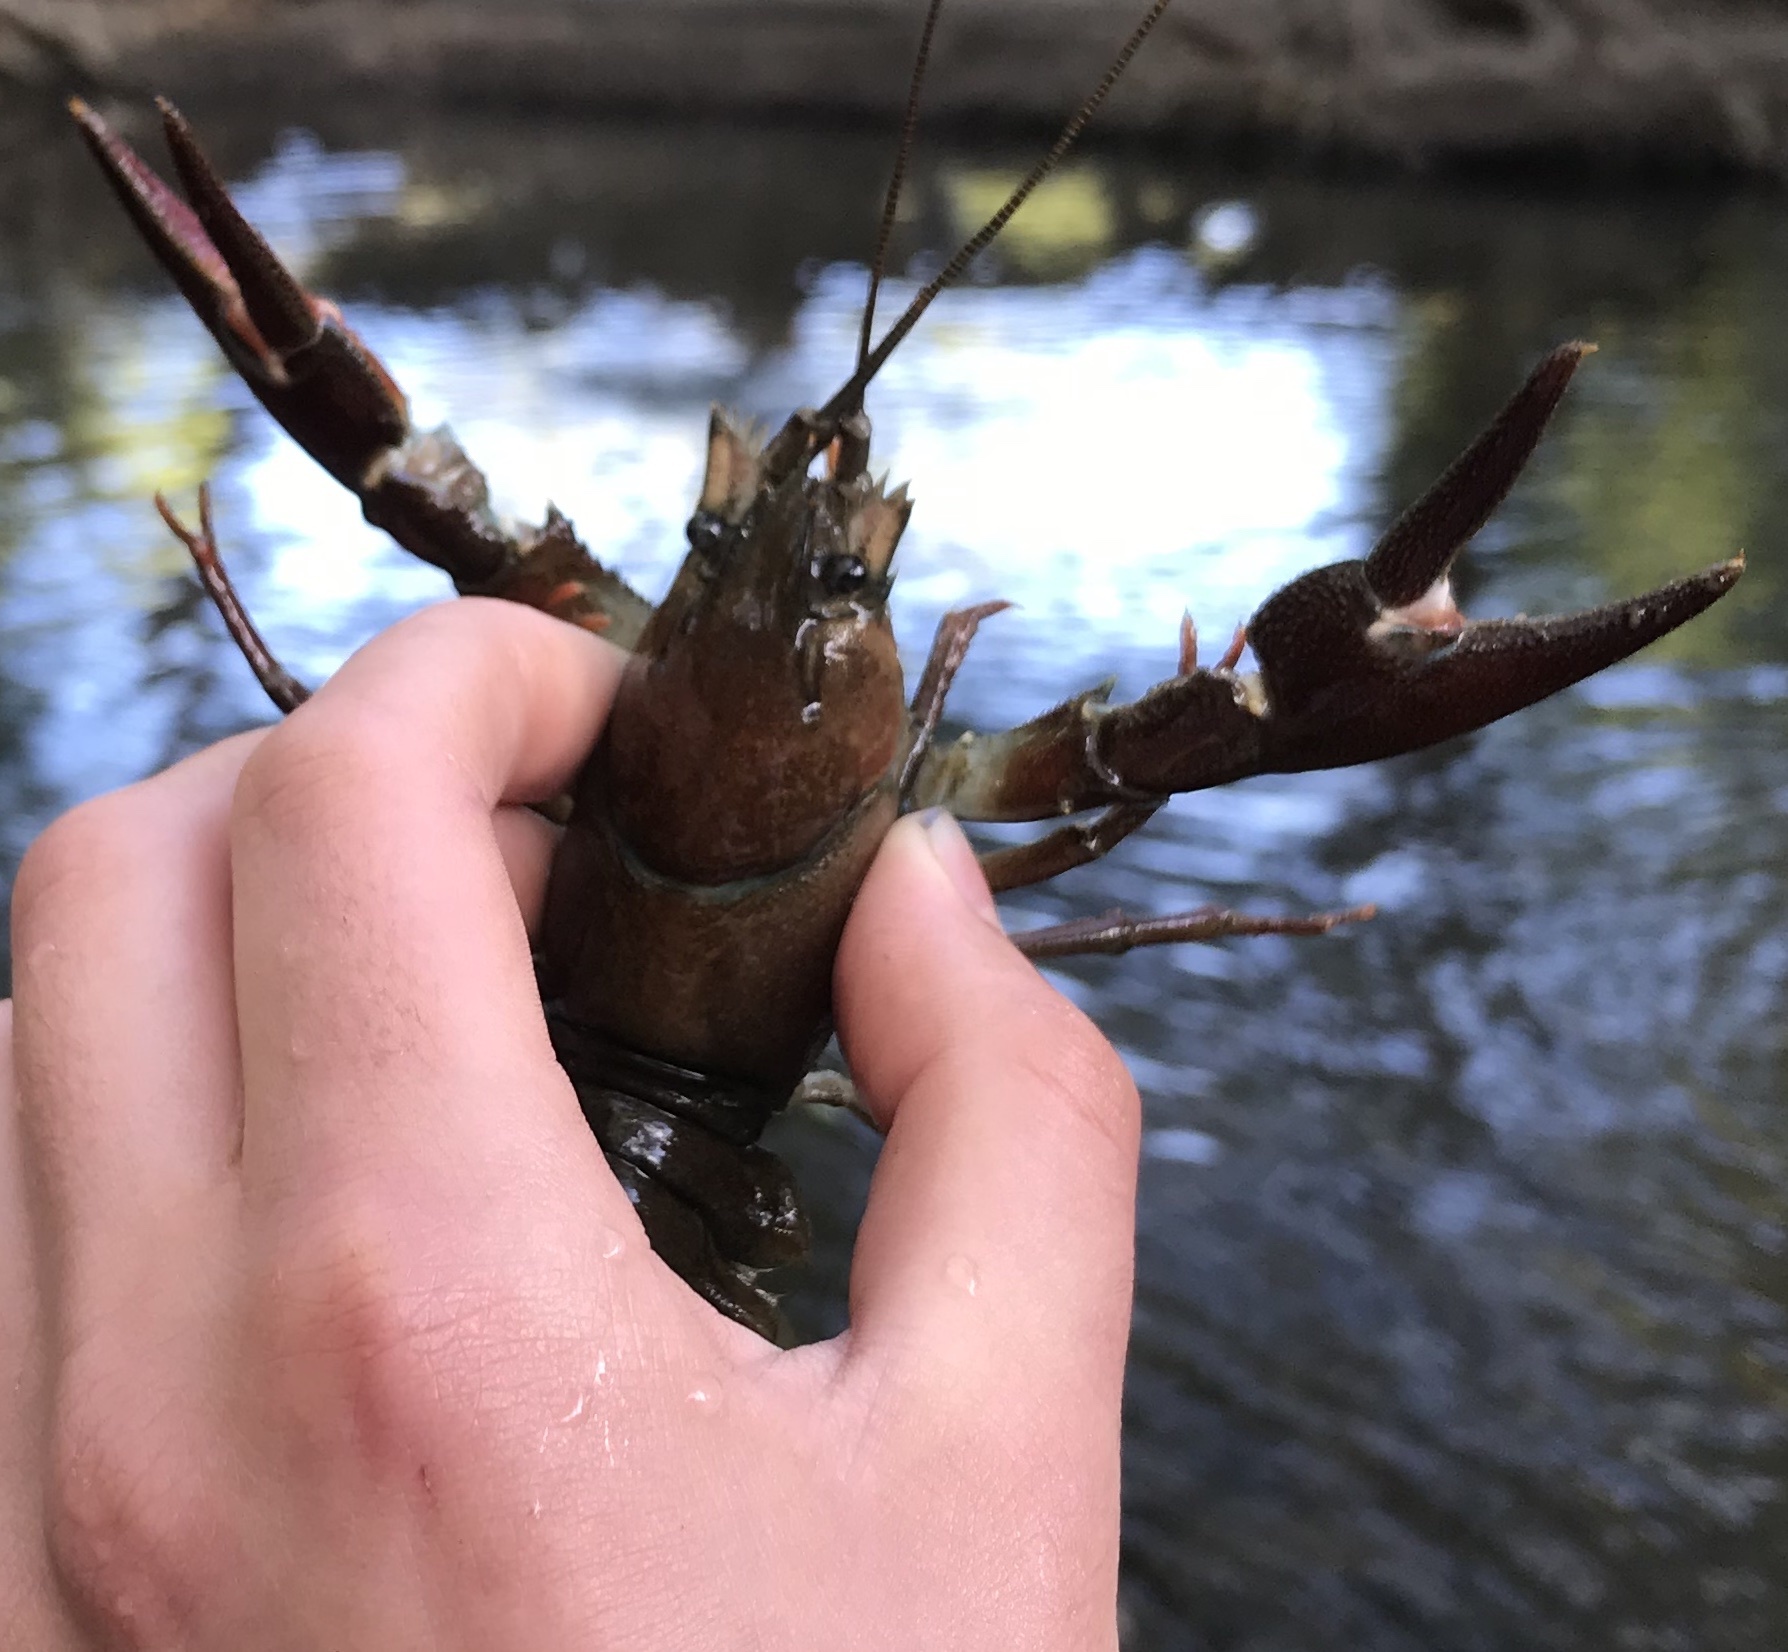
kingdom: Animalia
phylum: Arthropoda
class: Malacostraca
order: Decapoda
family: Astacidae
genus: Pacifastacus
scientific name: Pacifastacus leniusculus
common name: Signal crayfish
